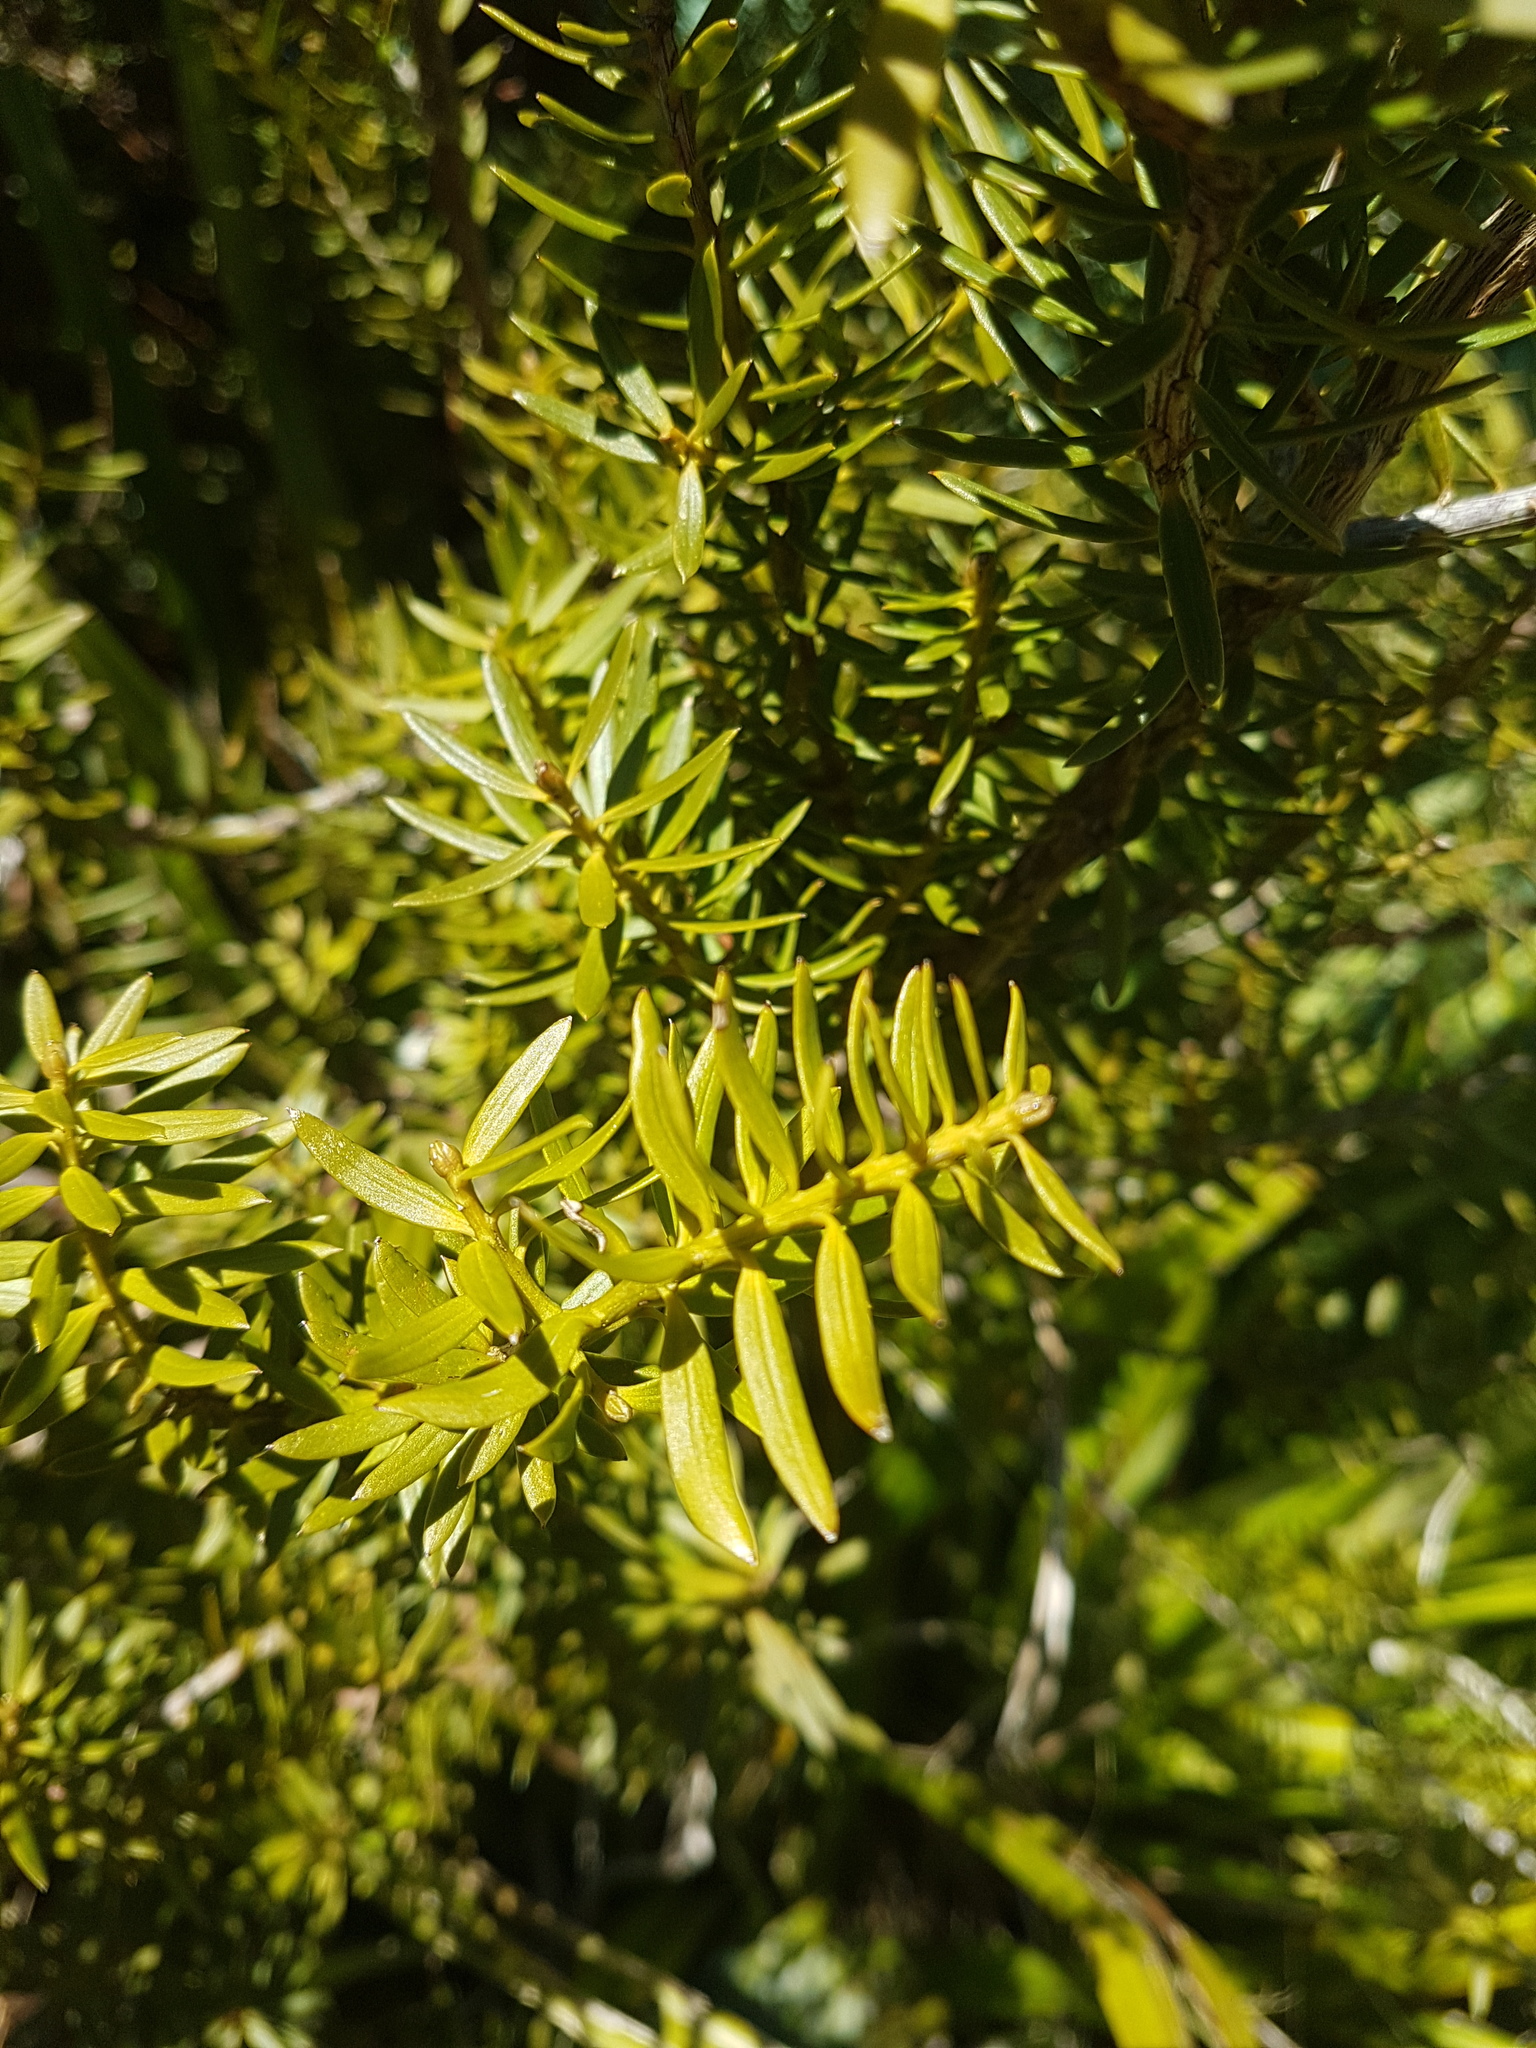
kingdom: Plantae
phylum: Tracheophyta
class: Pinopsida
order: Pinales
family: Podocarpaceae
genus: Podocarpus
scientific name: Podocarpus laetus
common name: Hall's totara
